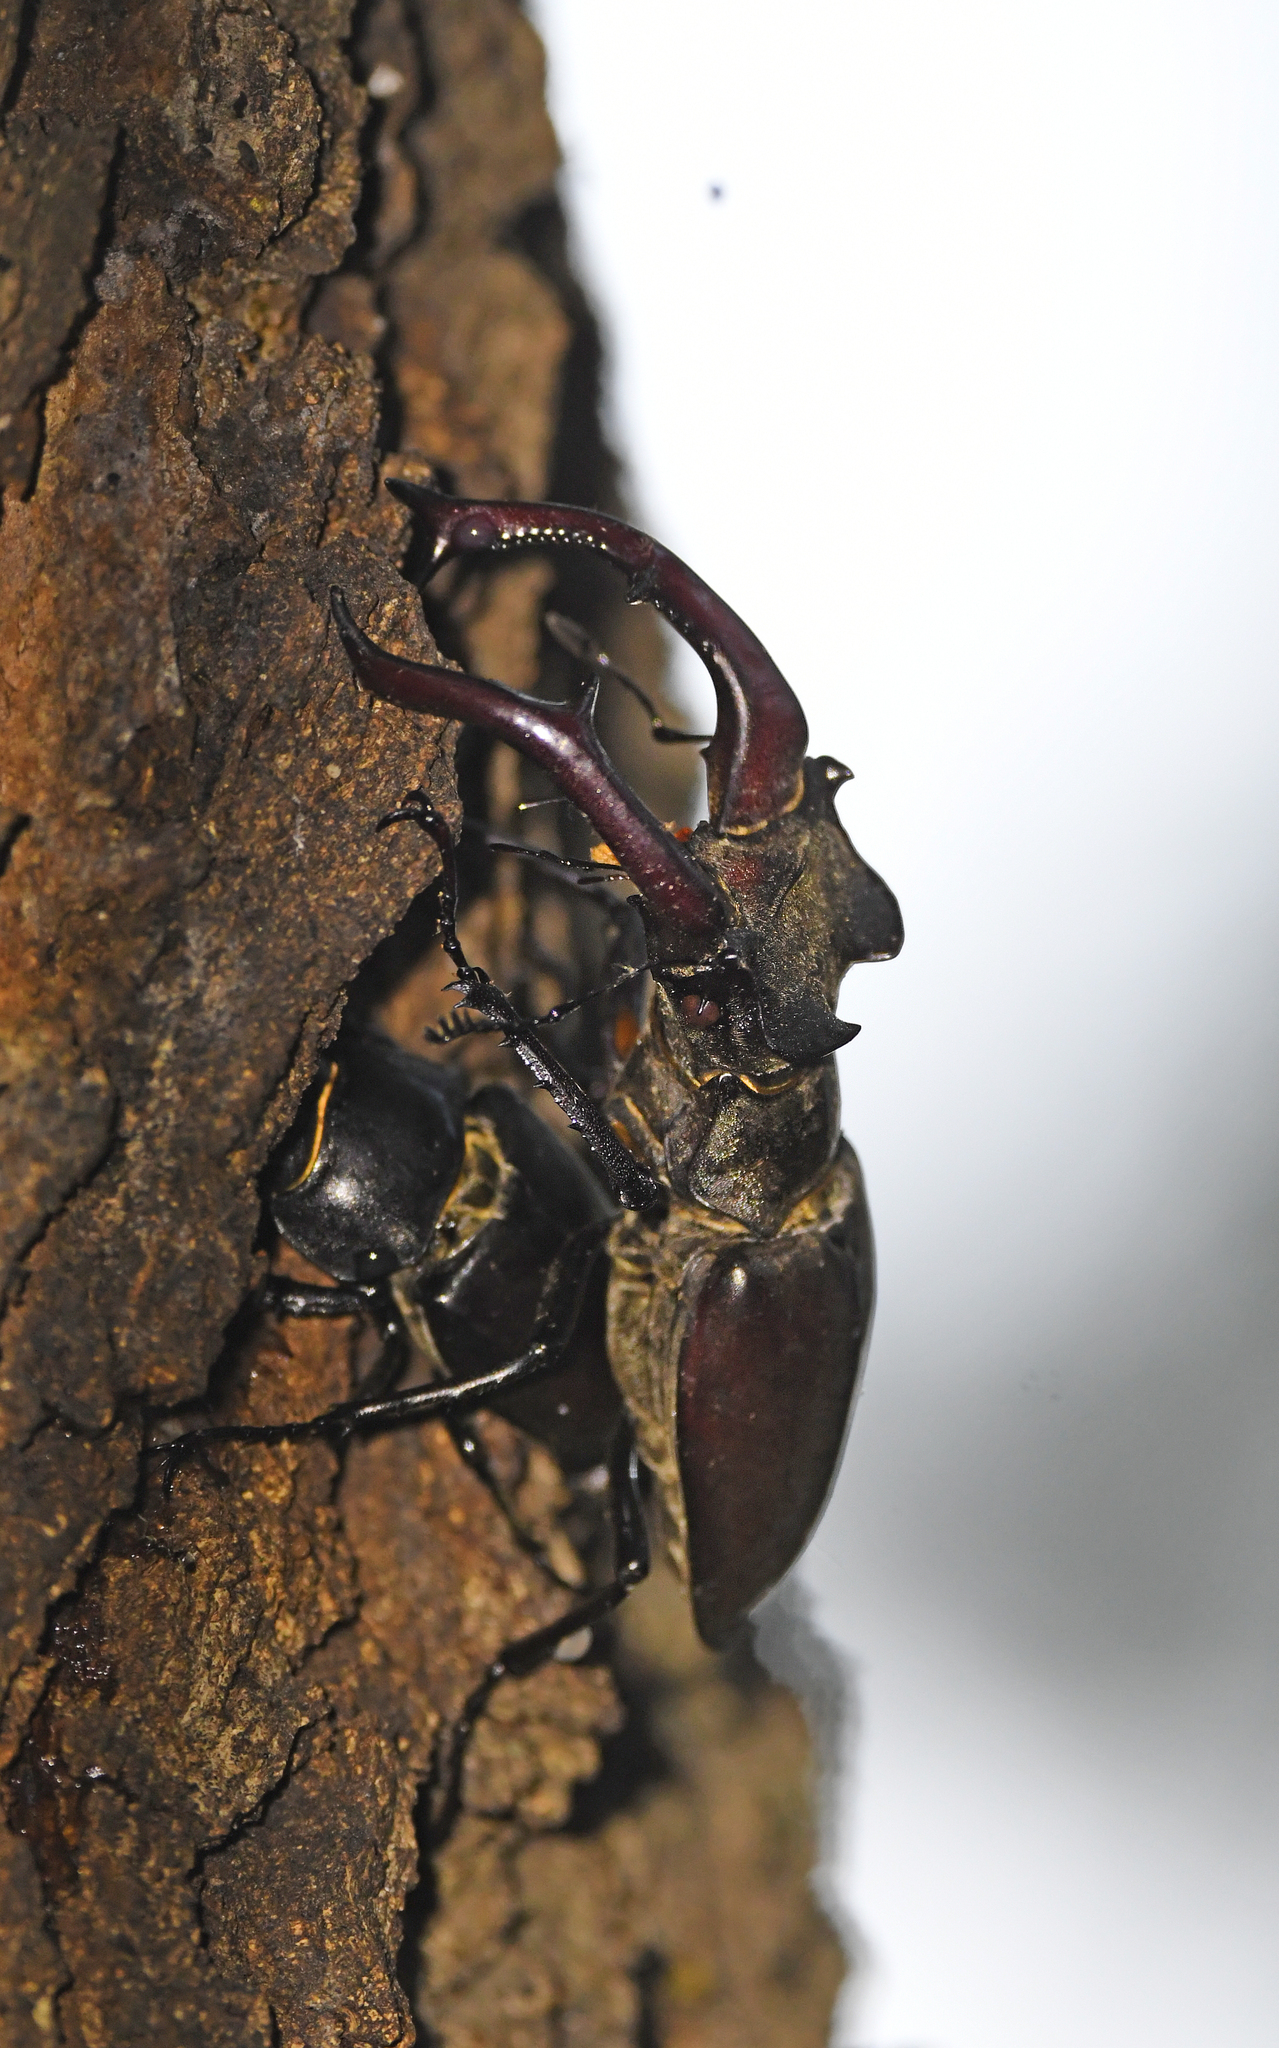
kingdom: Animalia
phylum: Arthropoda
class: Insecta
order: Coleoptera
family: Lucanidae
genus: Lucanus
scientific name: Lucanus cervus
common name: Stag beetle
